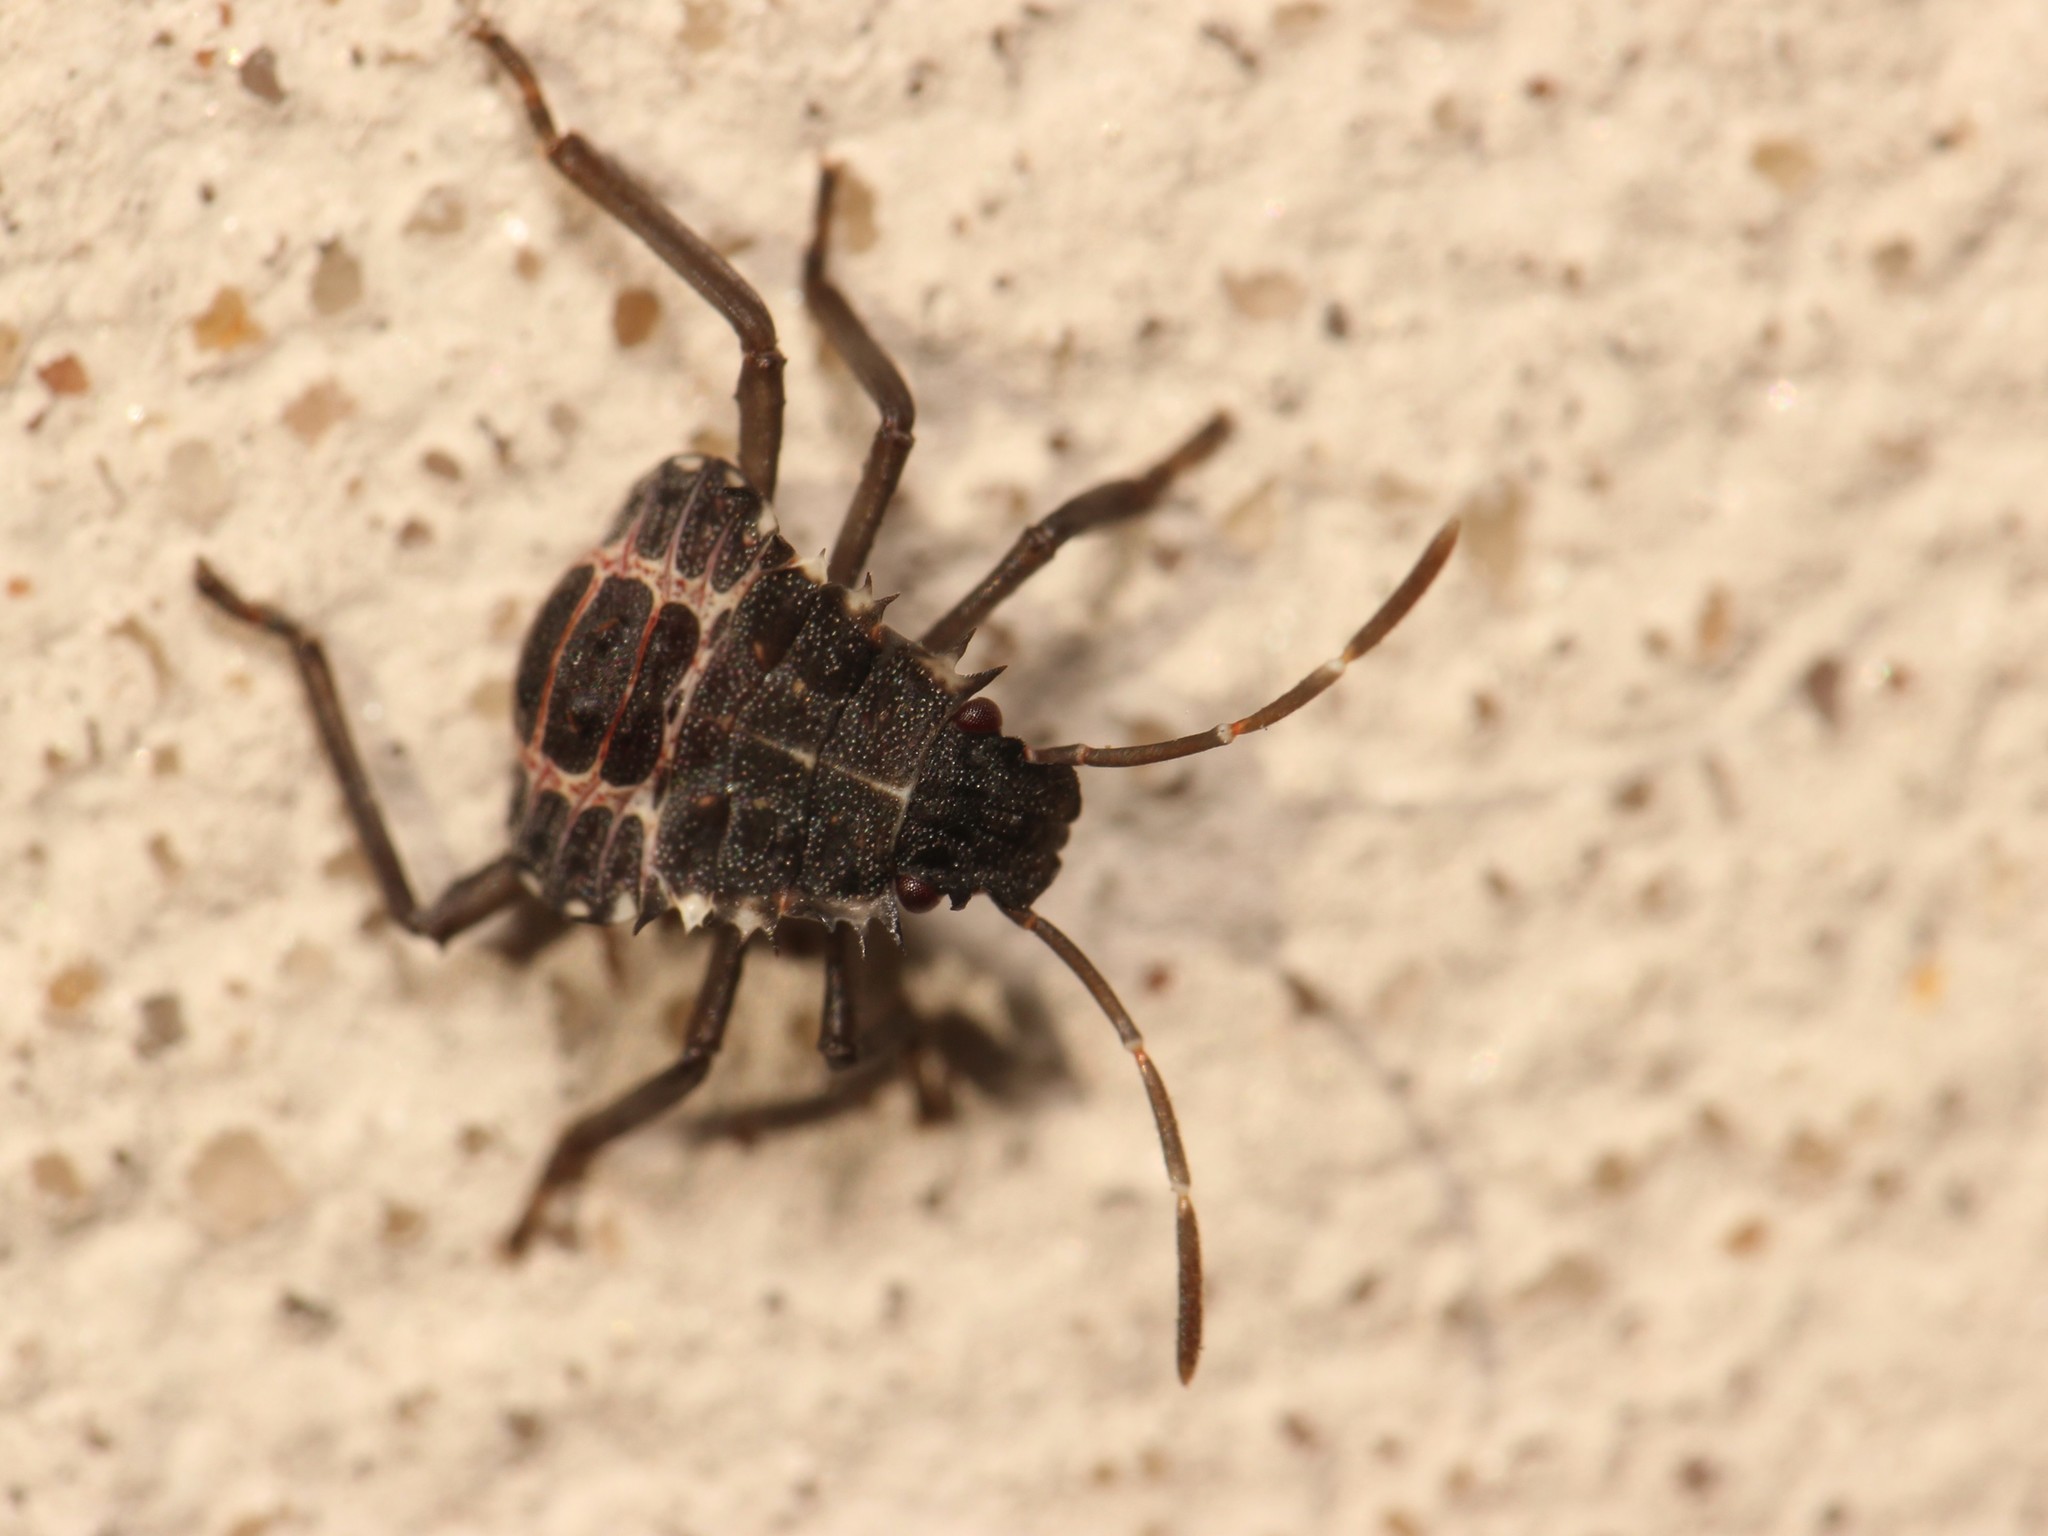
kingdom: Animalia
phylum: Arthropoda
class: Insecta
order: Hemiptera
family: Pentatomidae
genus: Halyomorpha
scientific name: Halyomorpha halys
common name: Brown marmorated stink bug
